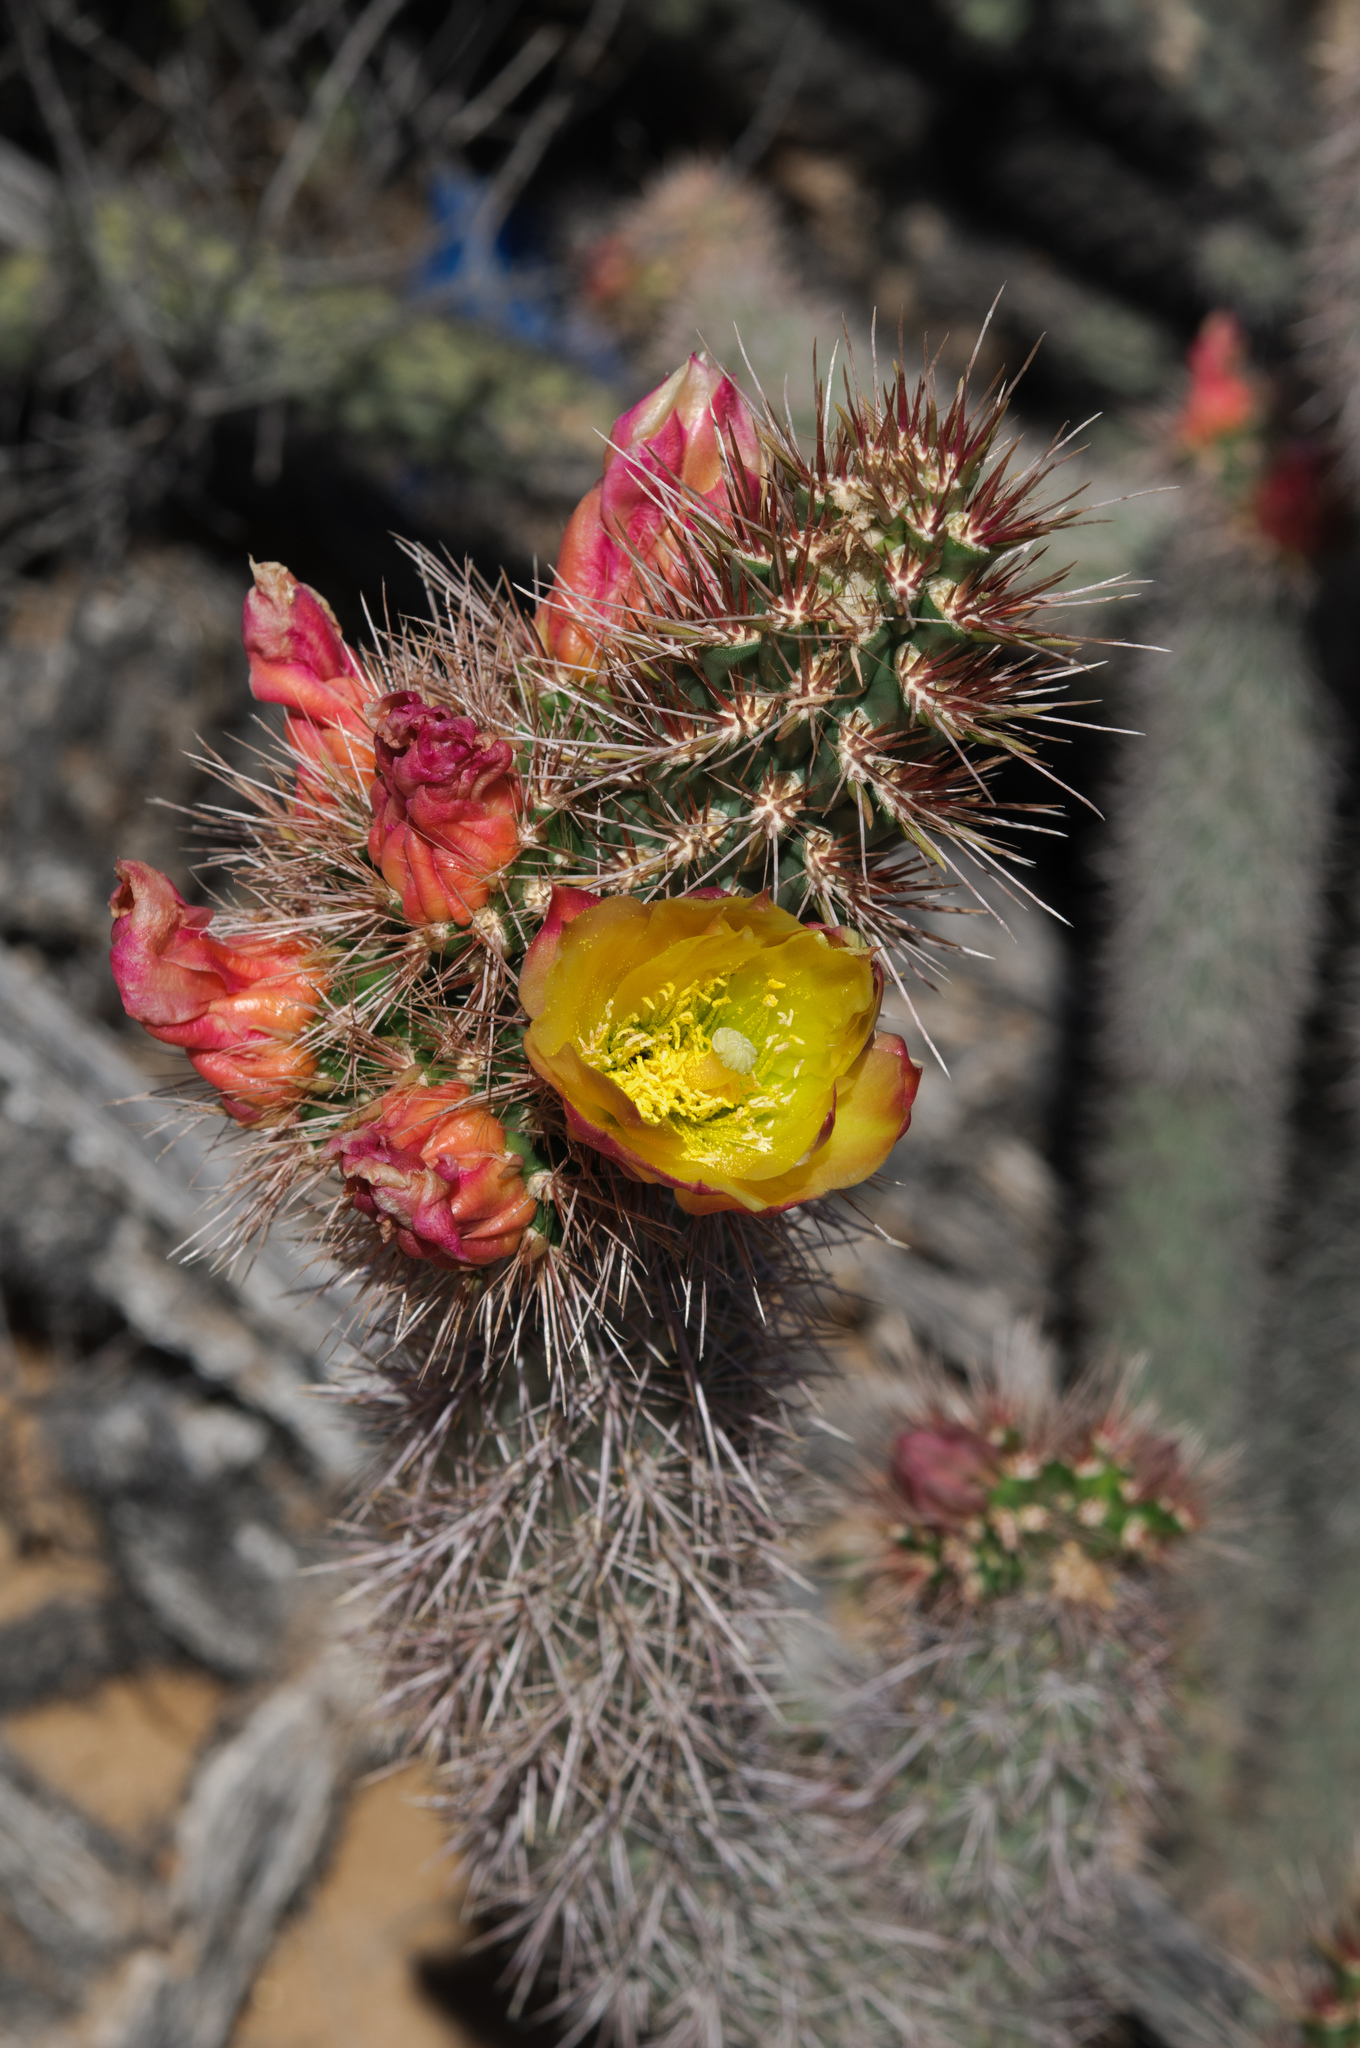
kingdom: Plantae
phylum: Tracheophyta
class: Magnoliopsida
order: Caryophyllales
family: Cactaceae
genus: Cylindropuntia
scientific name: Cylindropuntia ganderi
